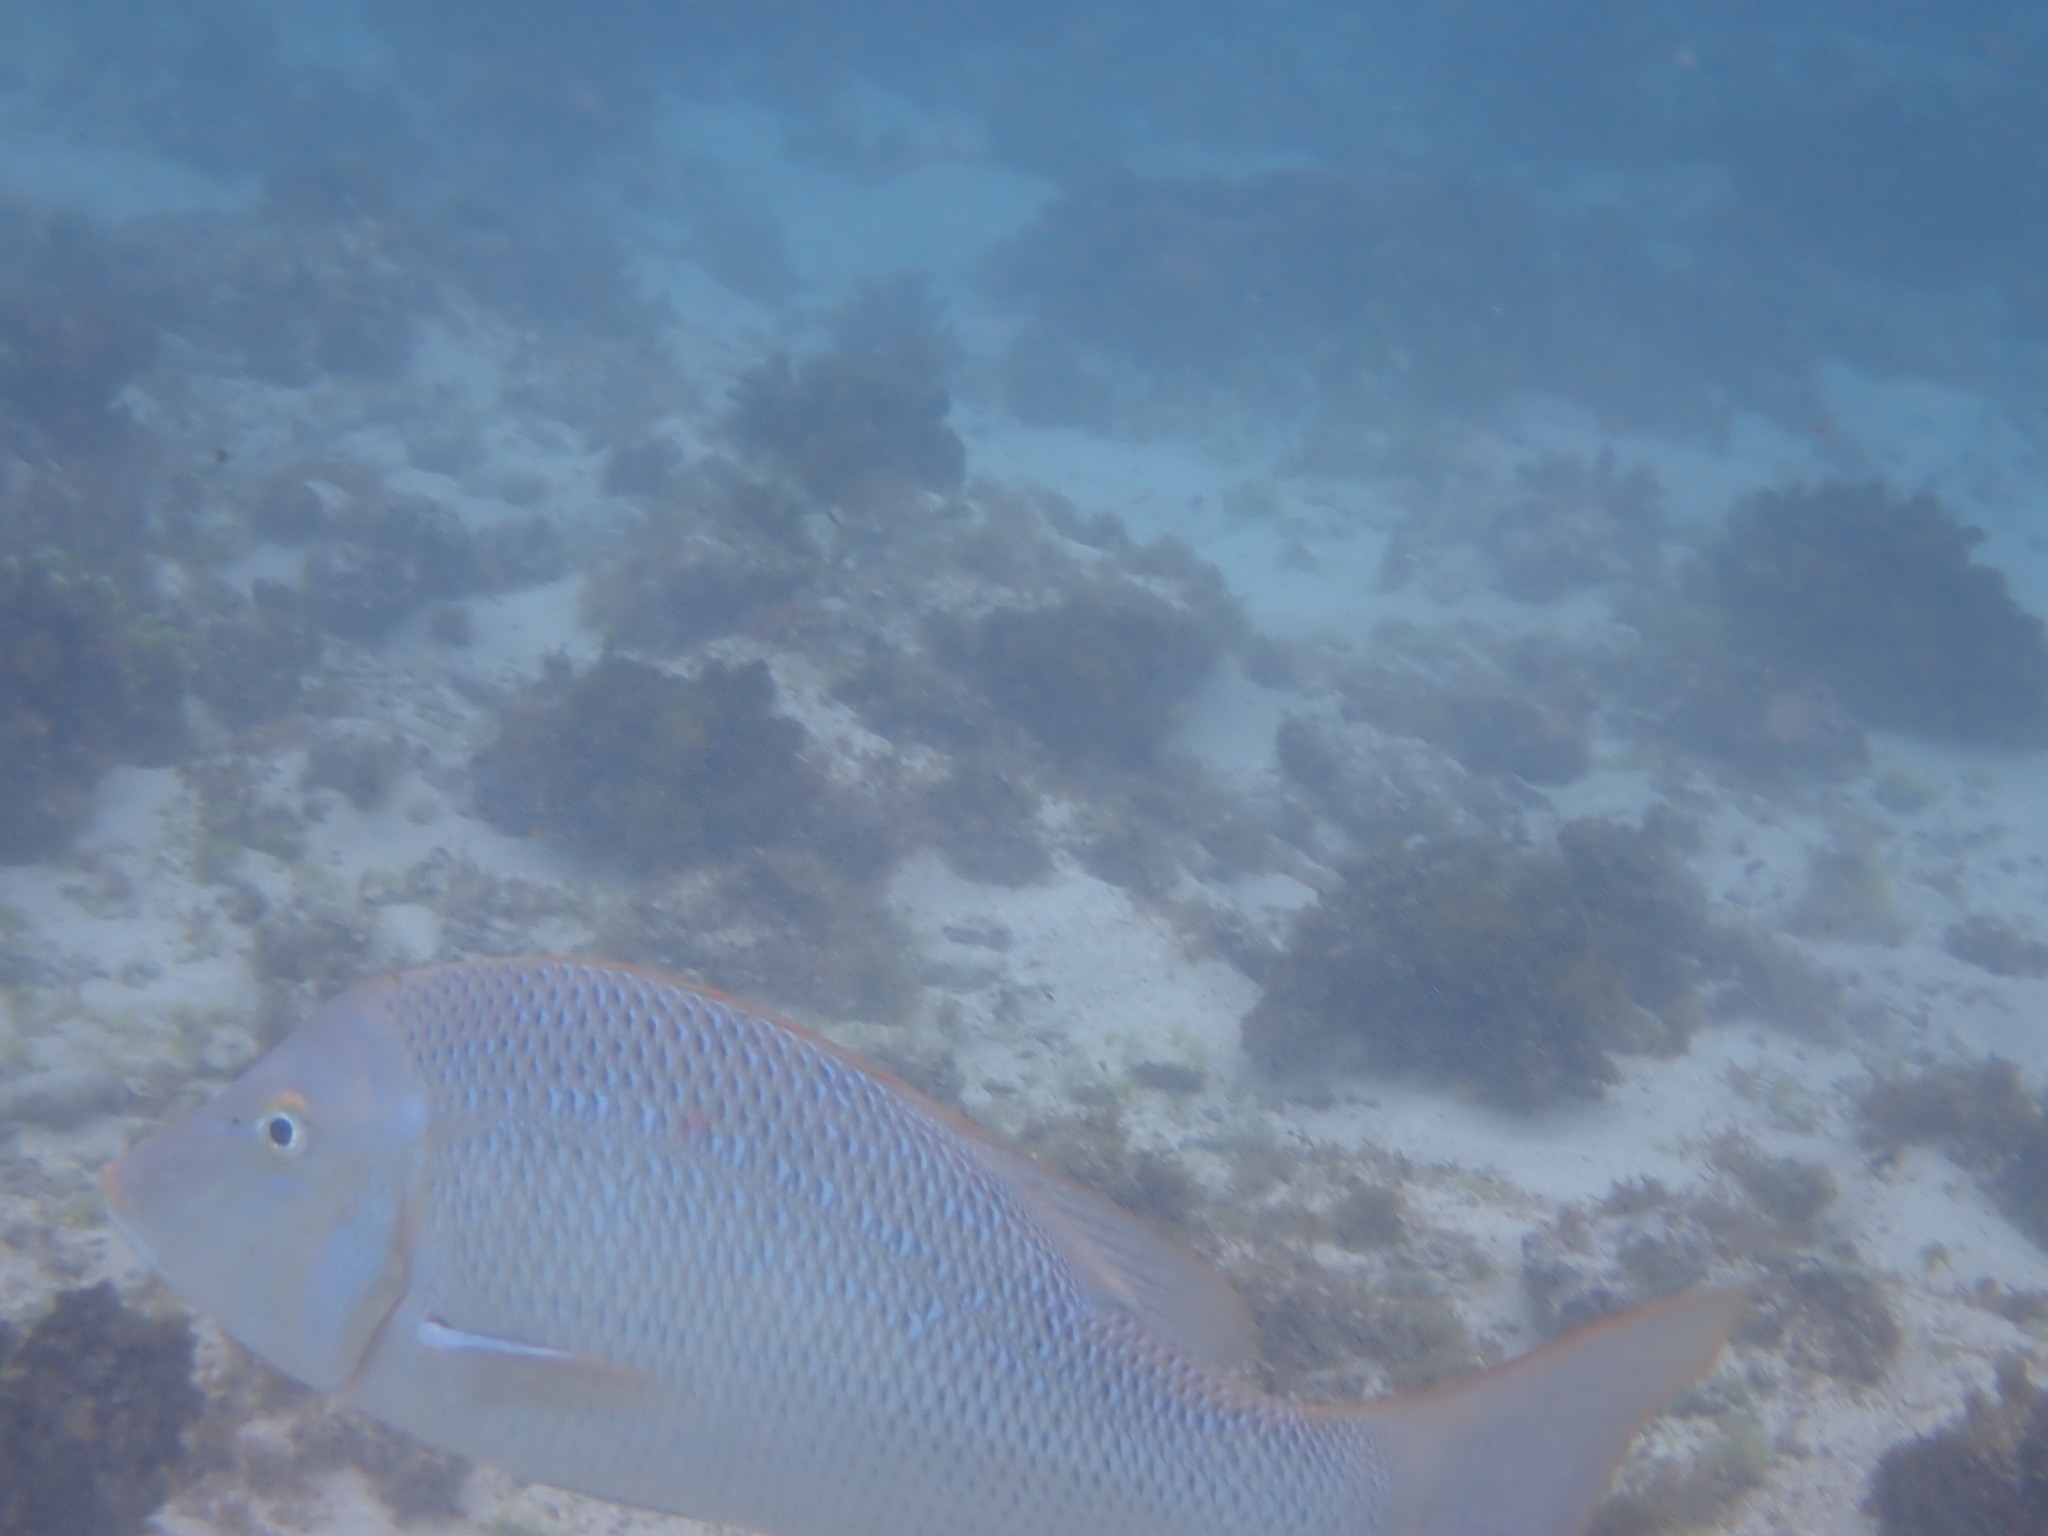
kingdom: Animalia
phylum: Chordata
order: Perciformes
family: Lethrinidae
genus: Lethrinus
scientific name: Lethrinus nebulosus
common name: Spangled emperor
